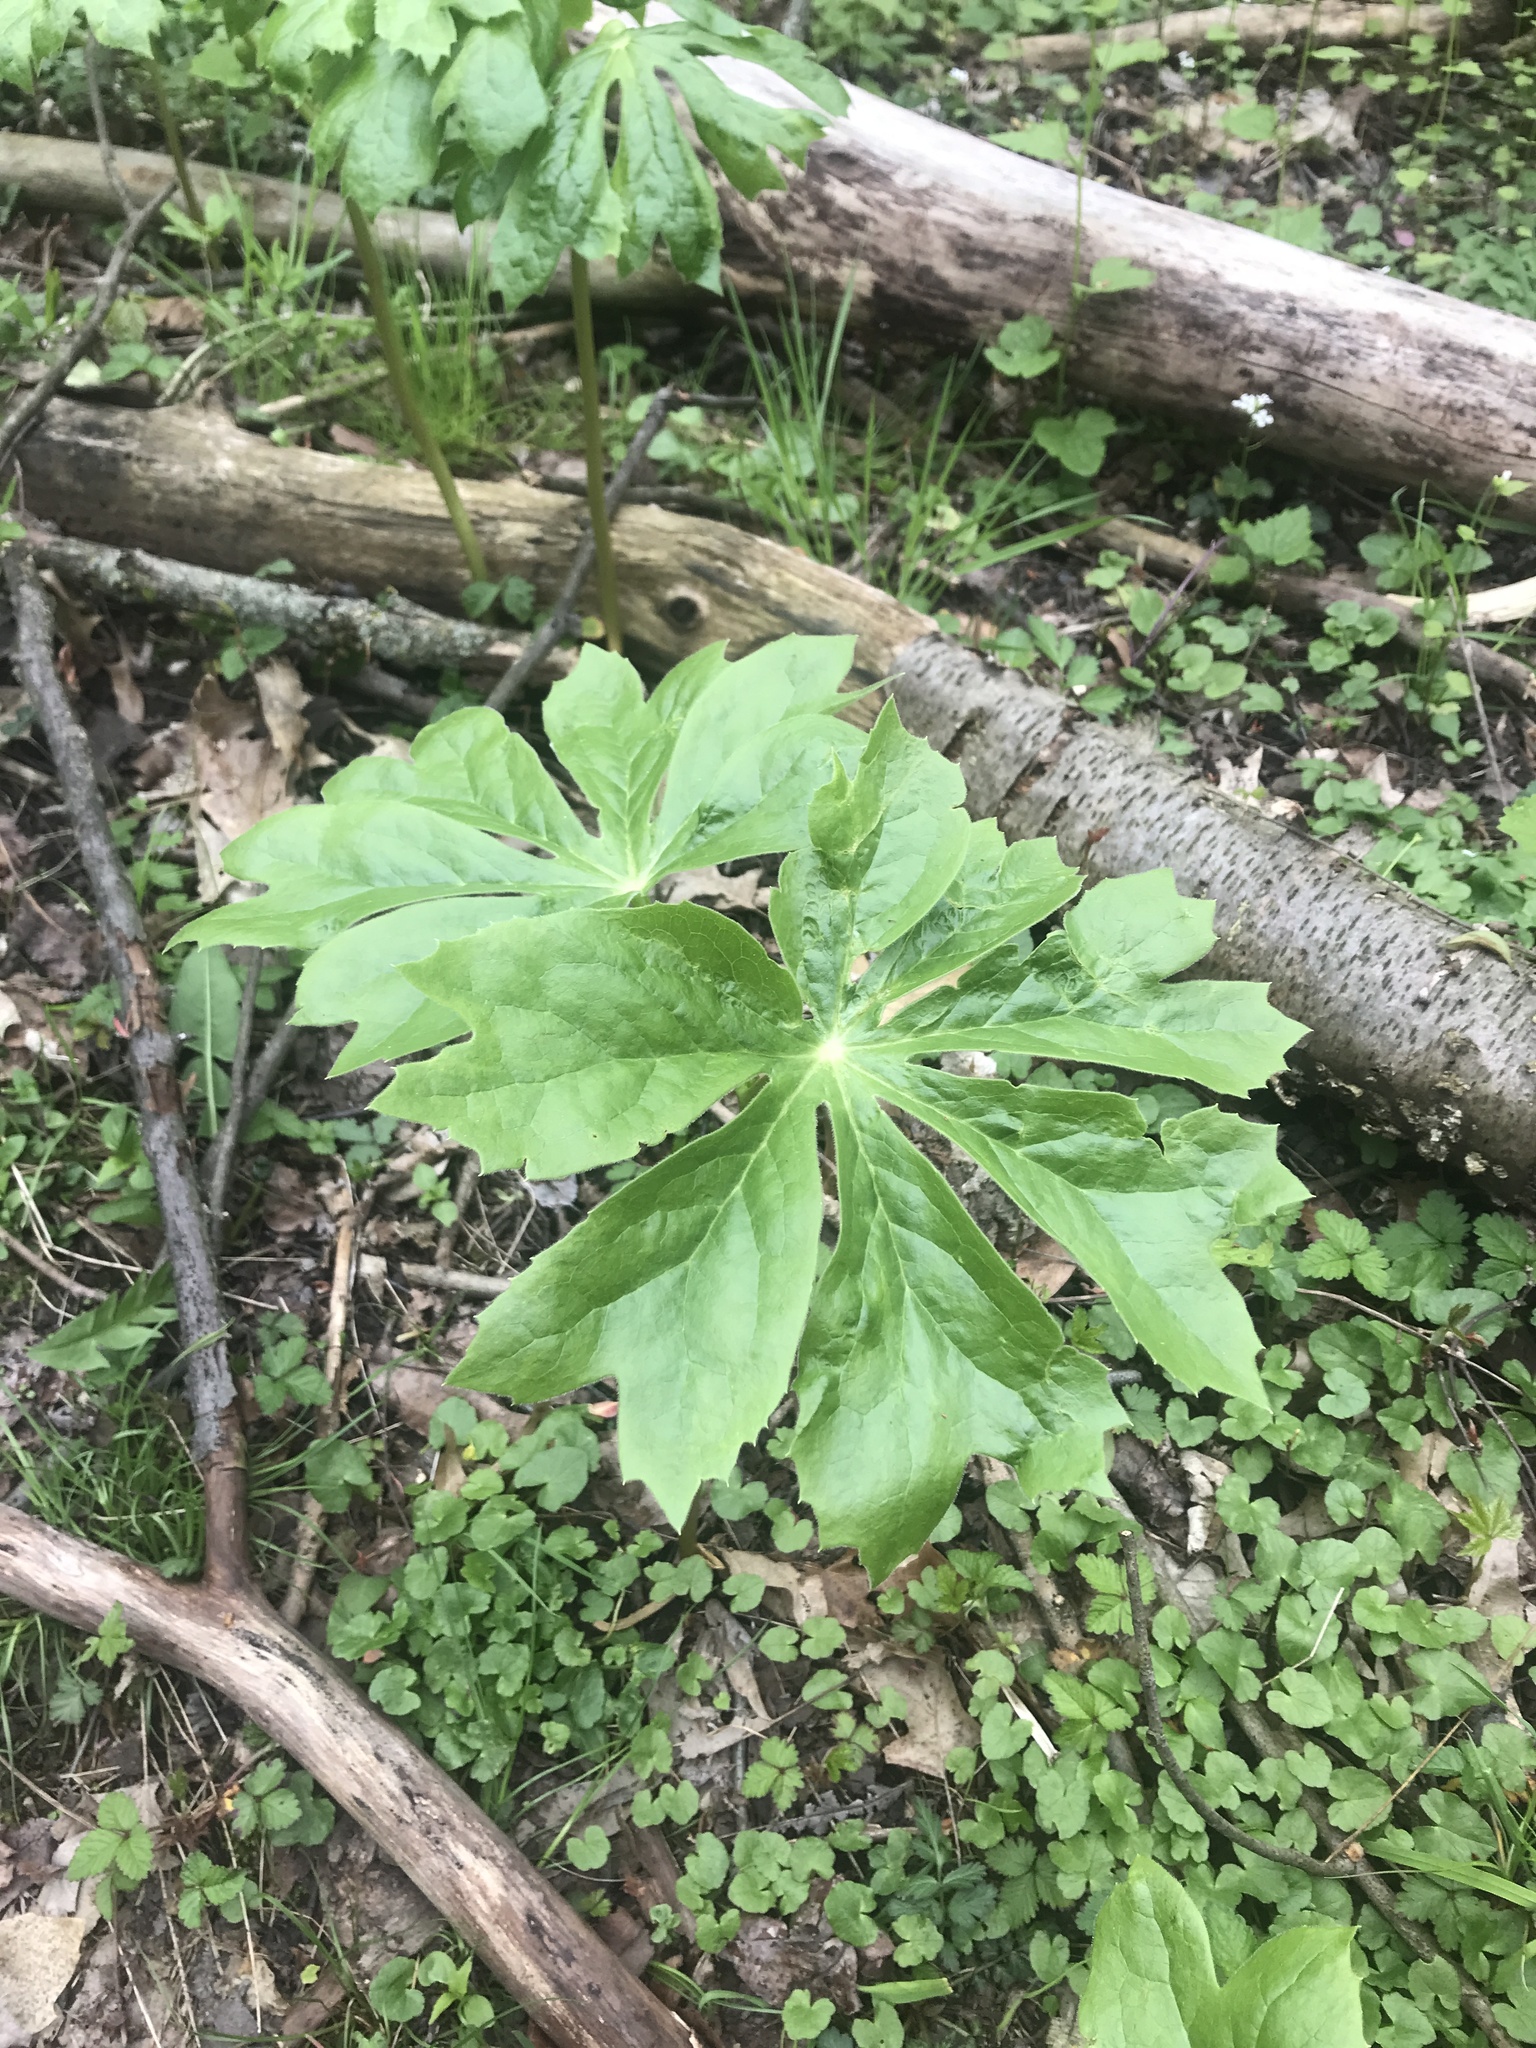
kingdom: Plantae
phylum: Tracheophyta
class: Magnoliopsida
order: Ranunculales
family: Berberidaceae
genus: Podophyllum
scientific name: Podophyllum peltatum
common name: Wild mandrake
